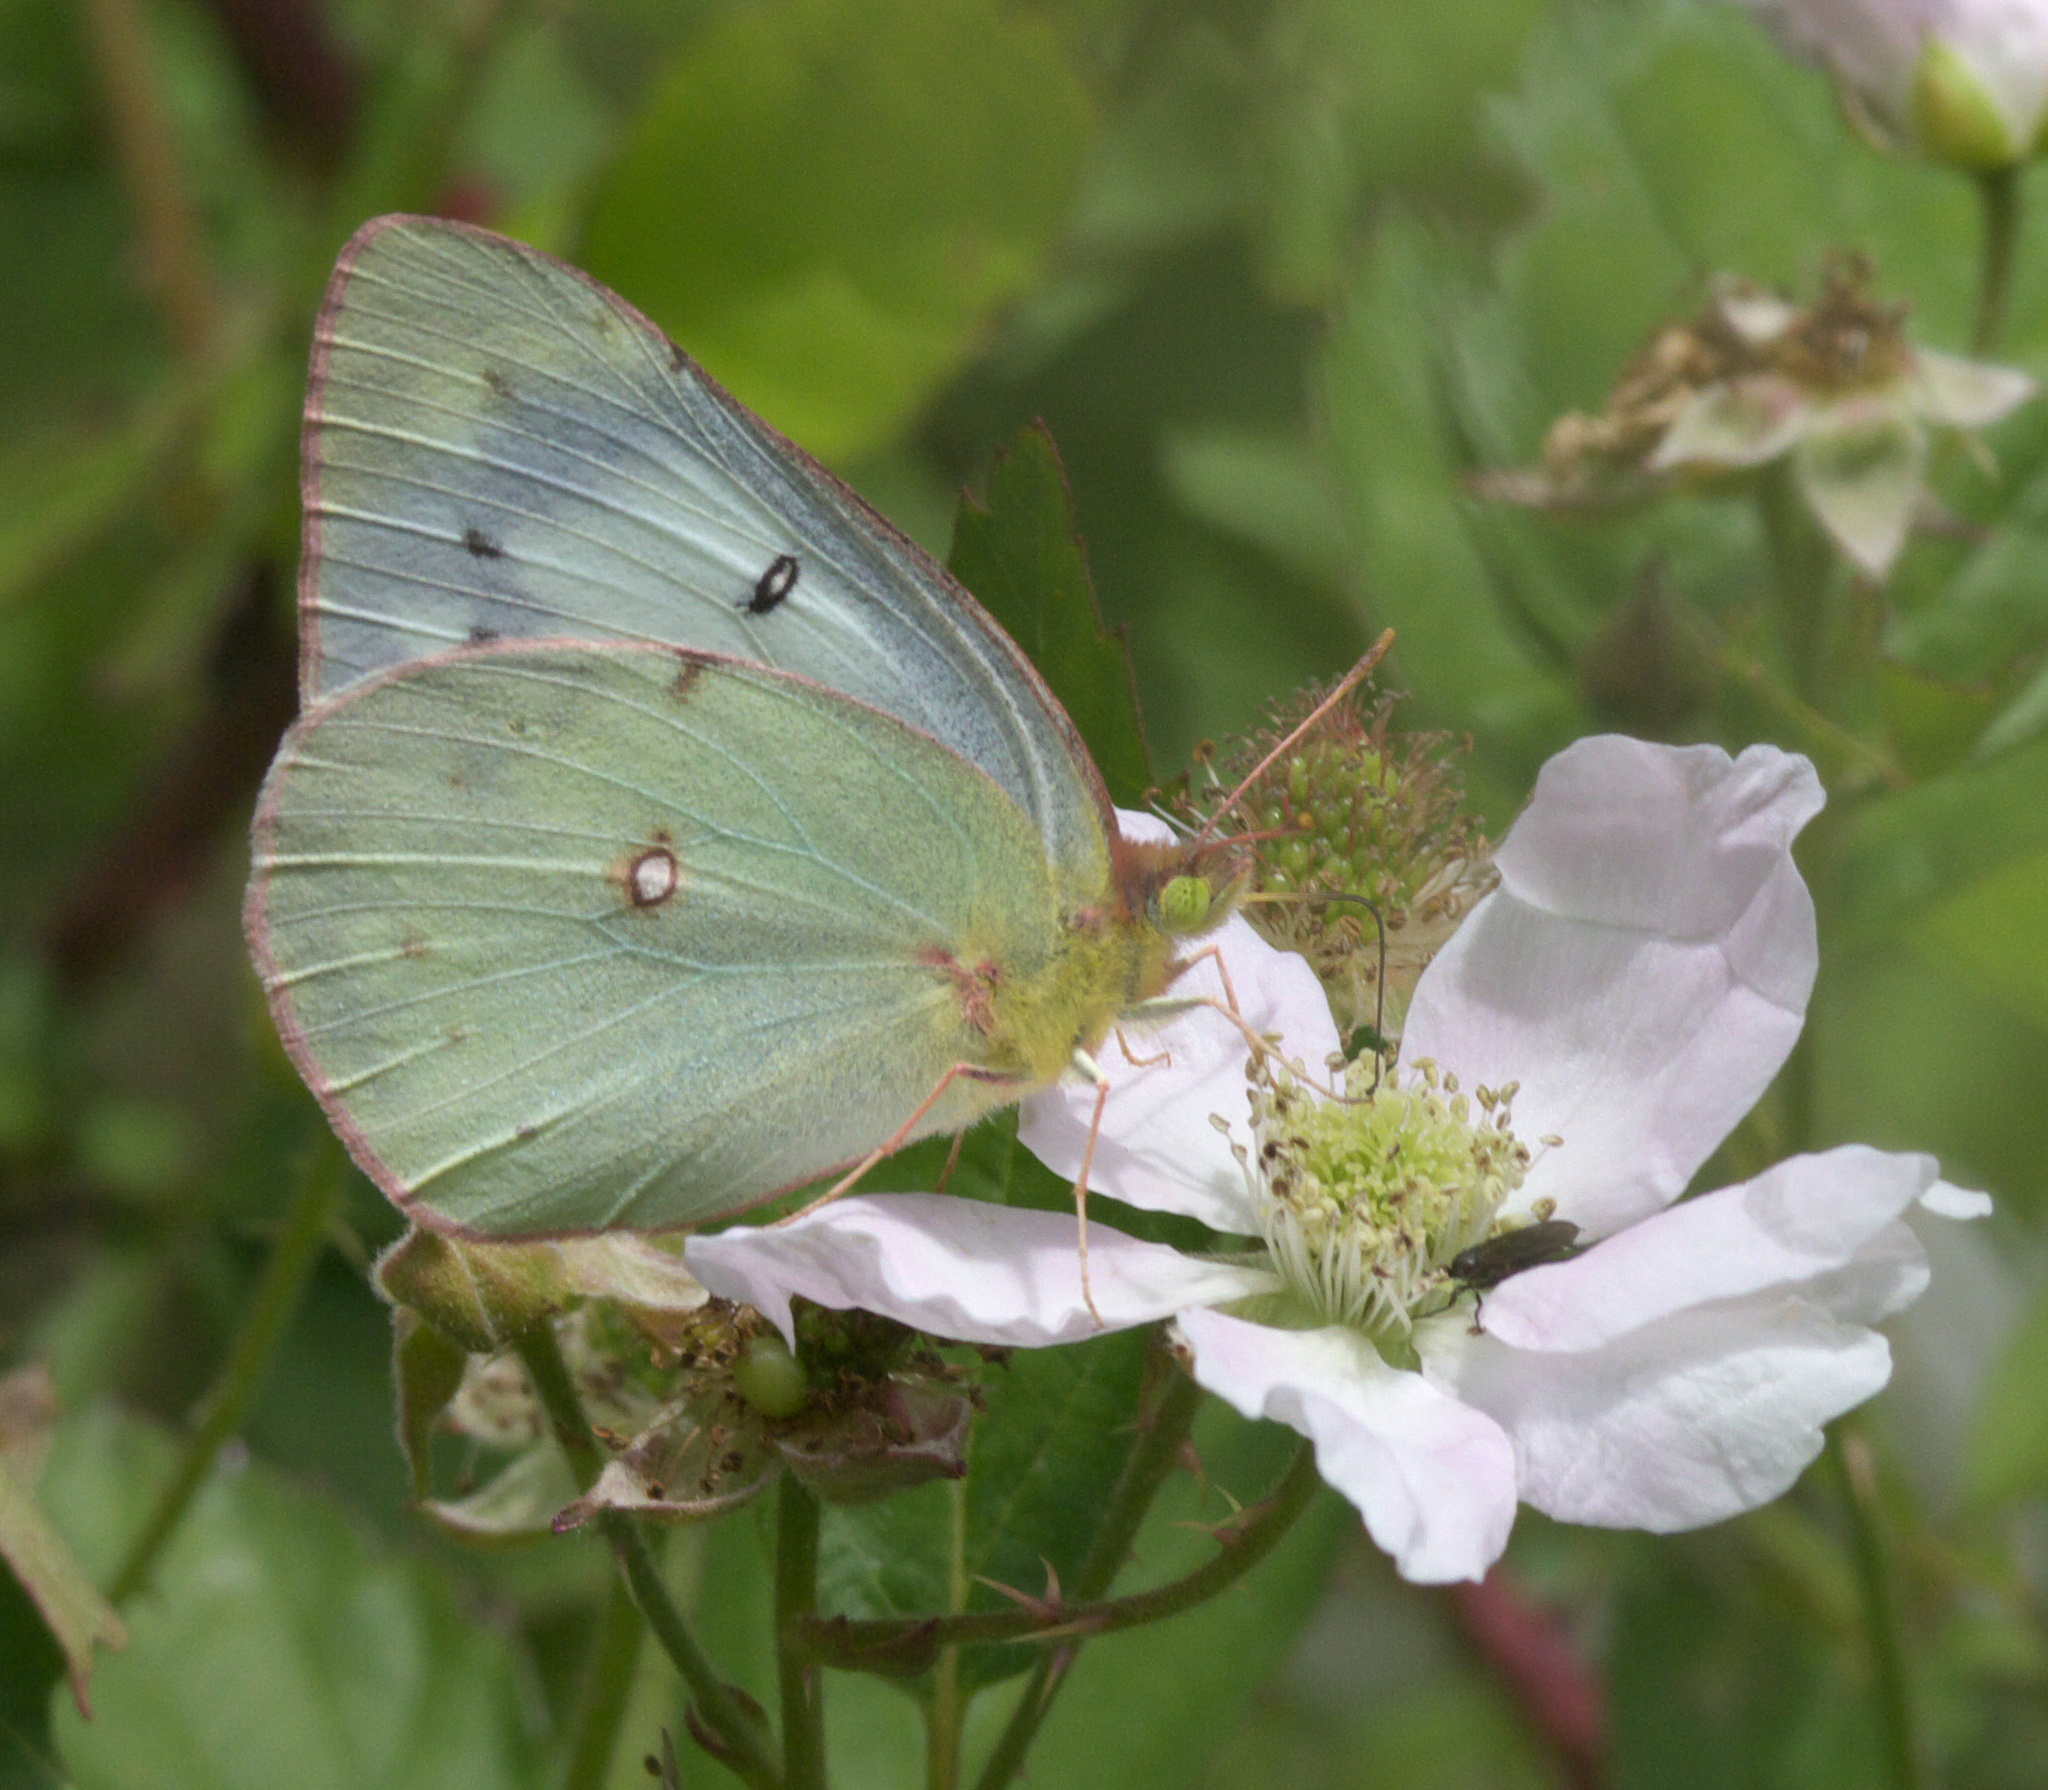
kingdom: Animalia
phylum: Arthropoda
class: Insecta
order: Lepidoptera
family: Pieridae
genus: Colias
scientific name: Colias eurytheme
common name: Alfalfa butterfly
